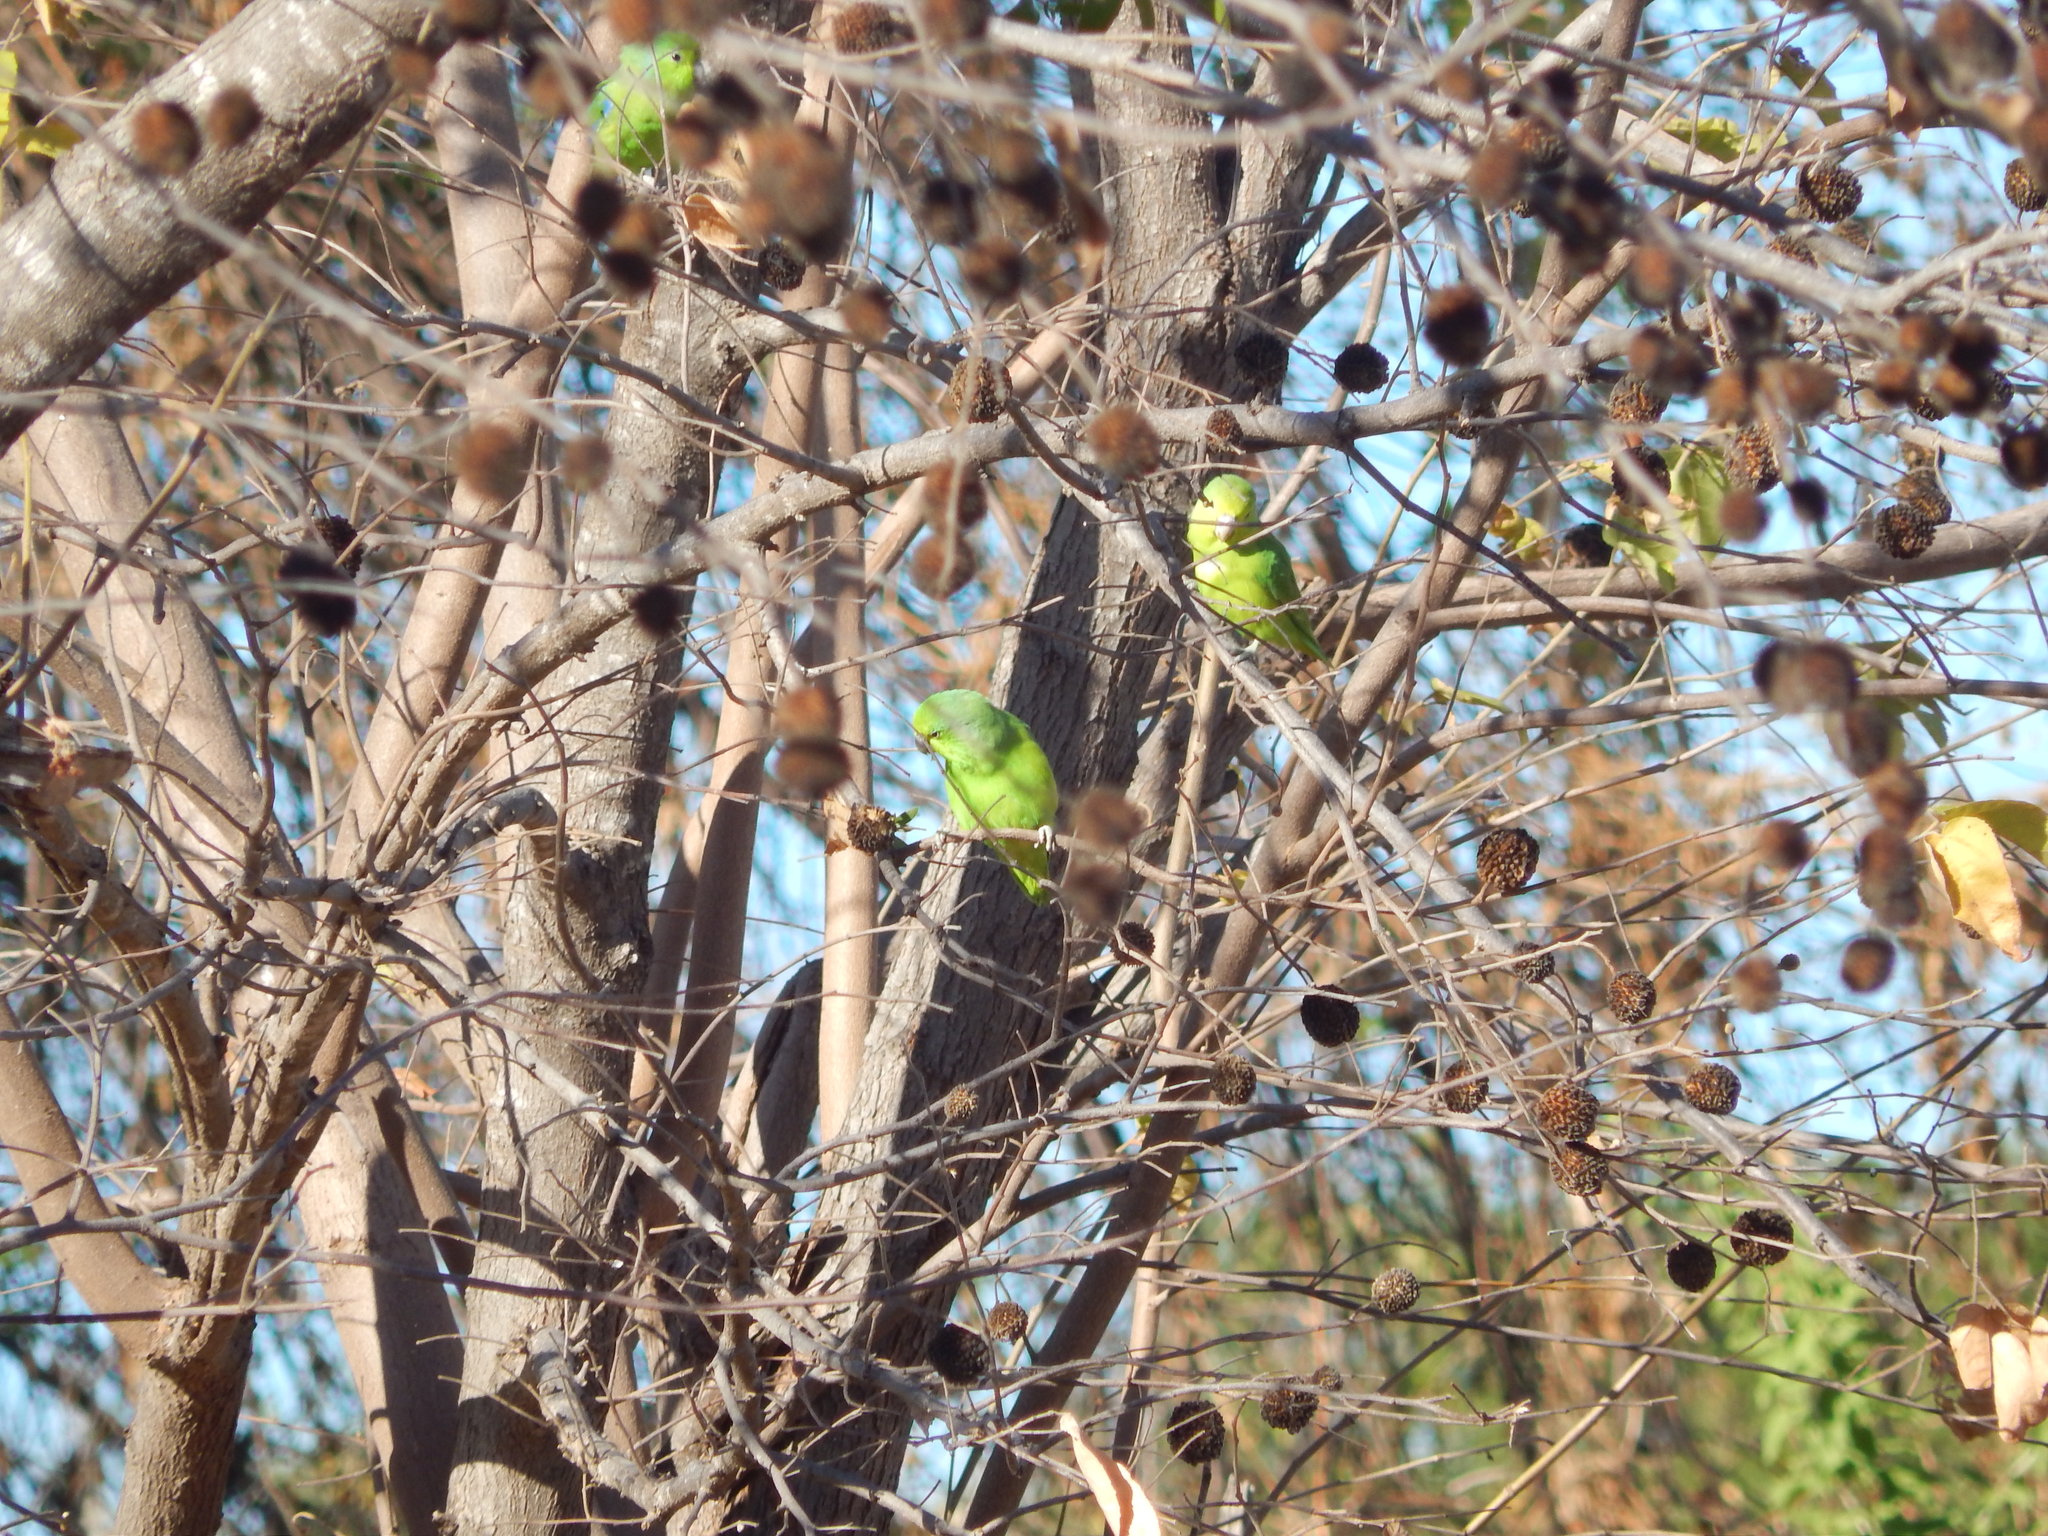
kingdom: Animalia
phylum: Chordata
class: Aves
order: Psittaciformes
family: Psittacidae
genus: Forpus
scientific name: Forpus xanthopterygius
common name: Blue-winged parrotlet
